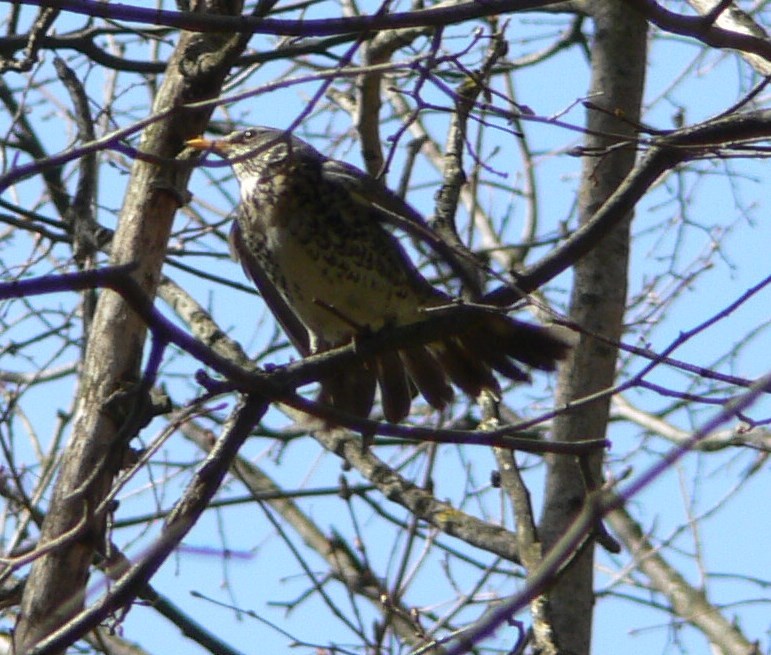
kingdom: Animalia
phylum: Chordata
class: Aves
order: Passeriformes
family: Turdidae
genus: Turdus
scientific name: Turdus pilaris
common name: Fieldfare
